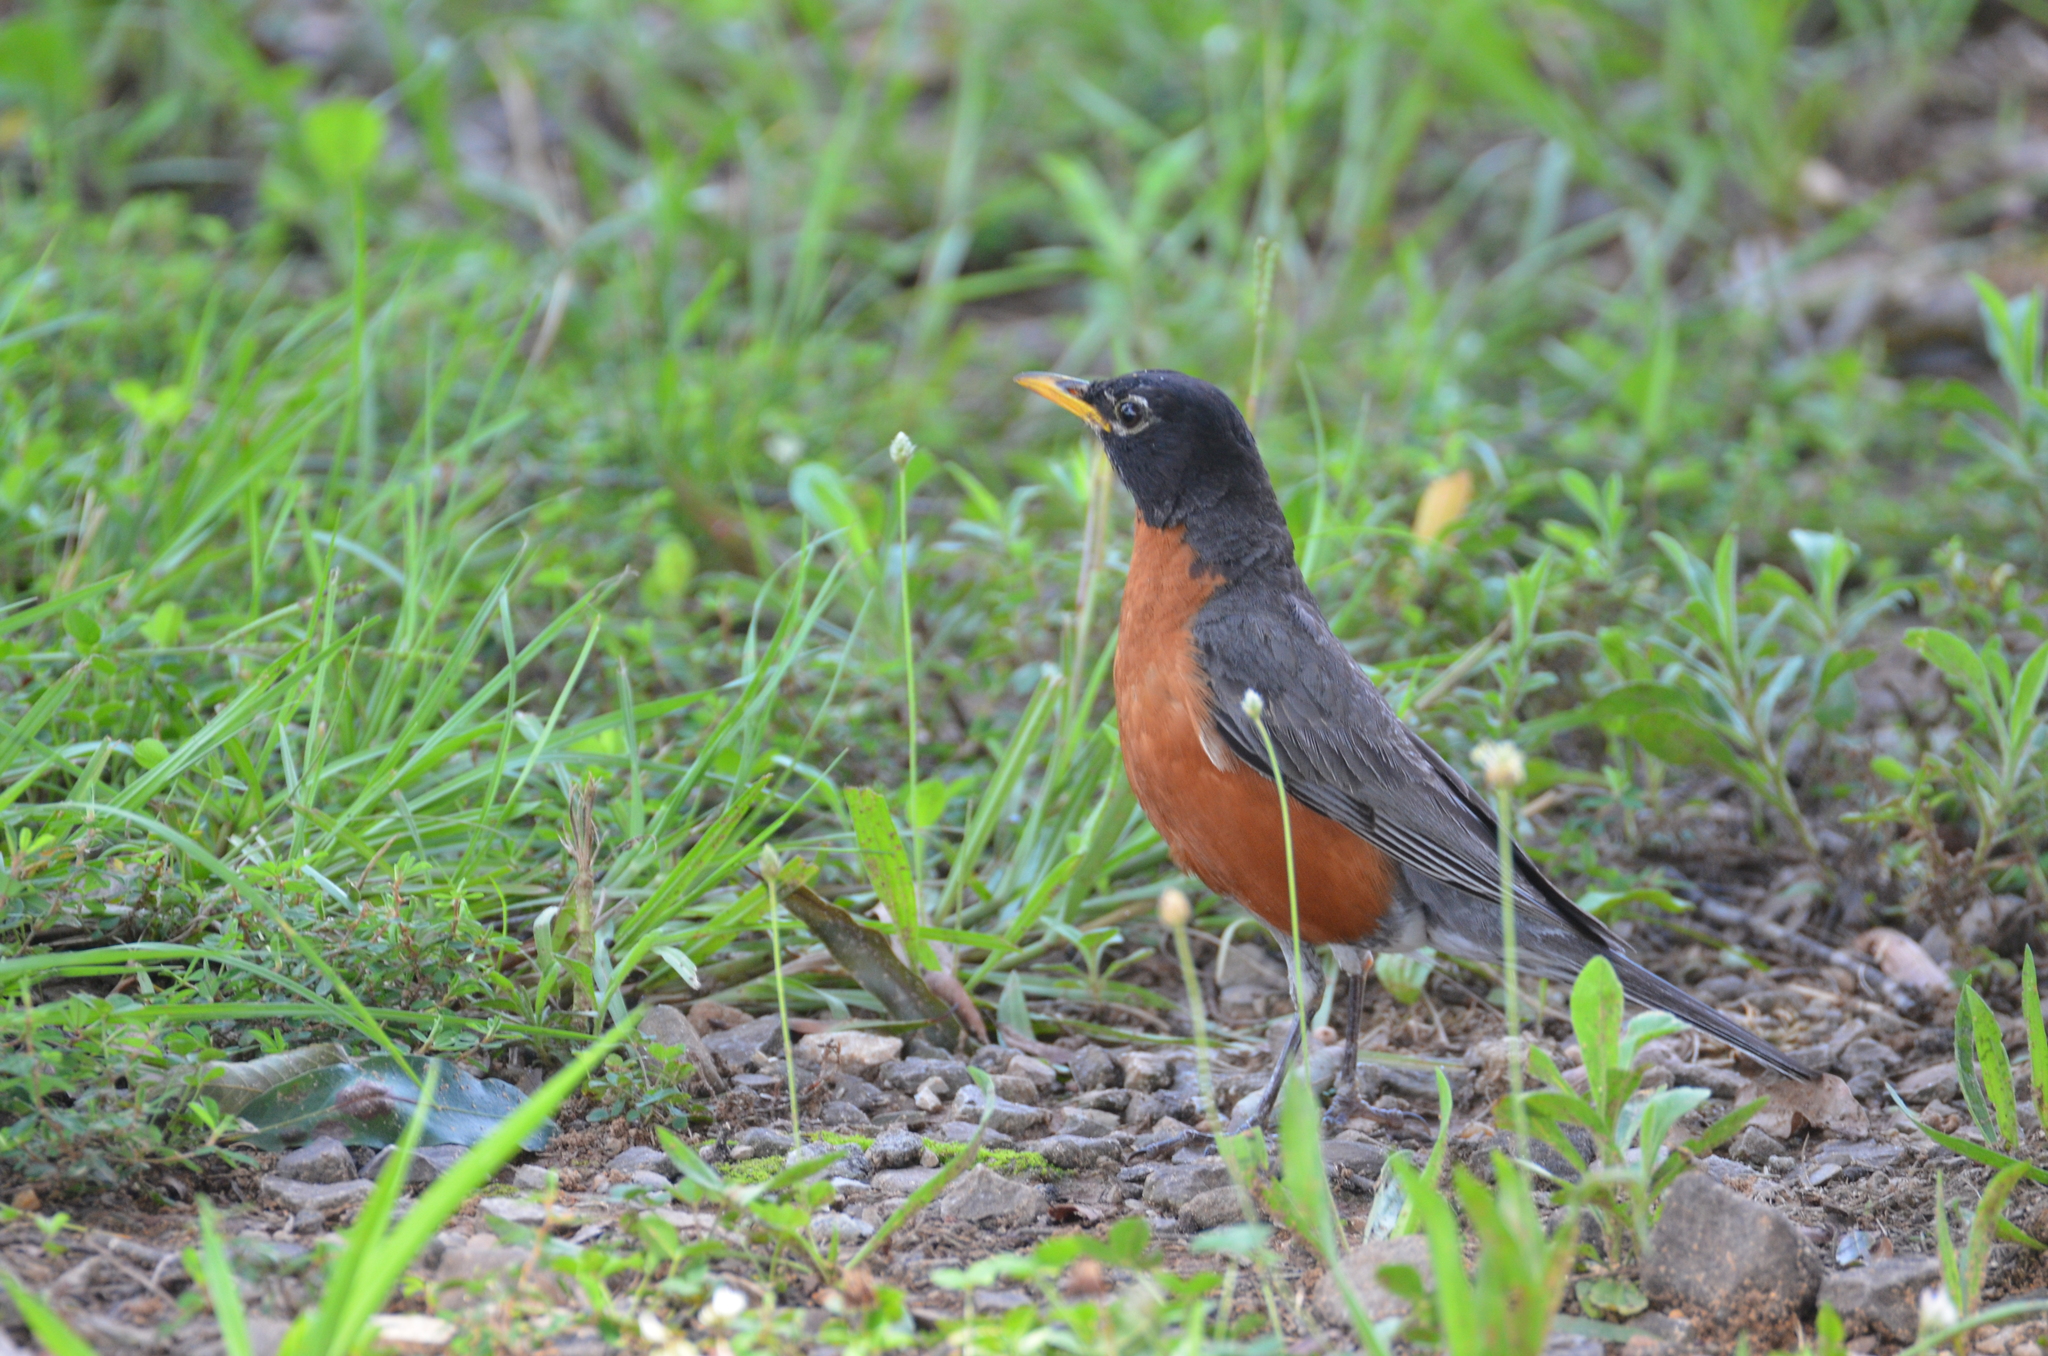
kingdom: Animalia
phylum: Chordata
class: Aves
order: Passeriformes
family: Turdidae
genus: Turdus
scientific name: Turdus migratorius
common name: American robin
